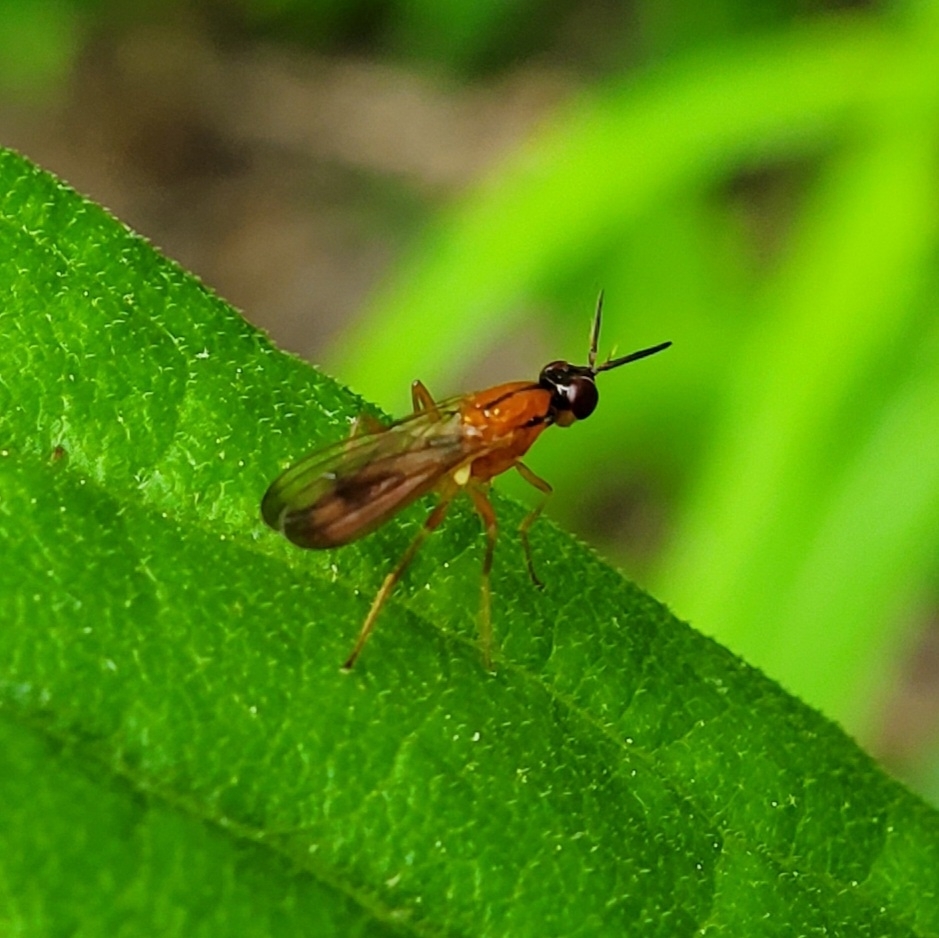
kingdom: Animalia
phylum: Arthropoda
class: Insecta
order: Diptera
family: Psilidae
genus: Loxocera
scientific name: Loxocera cylindrica
